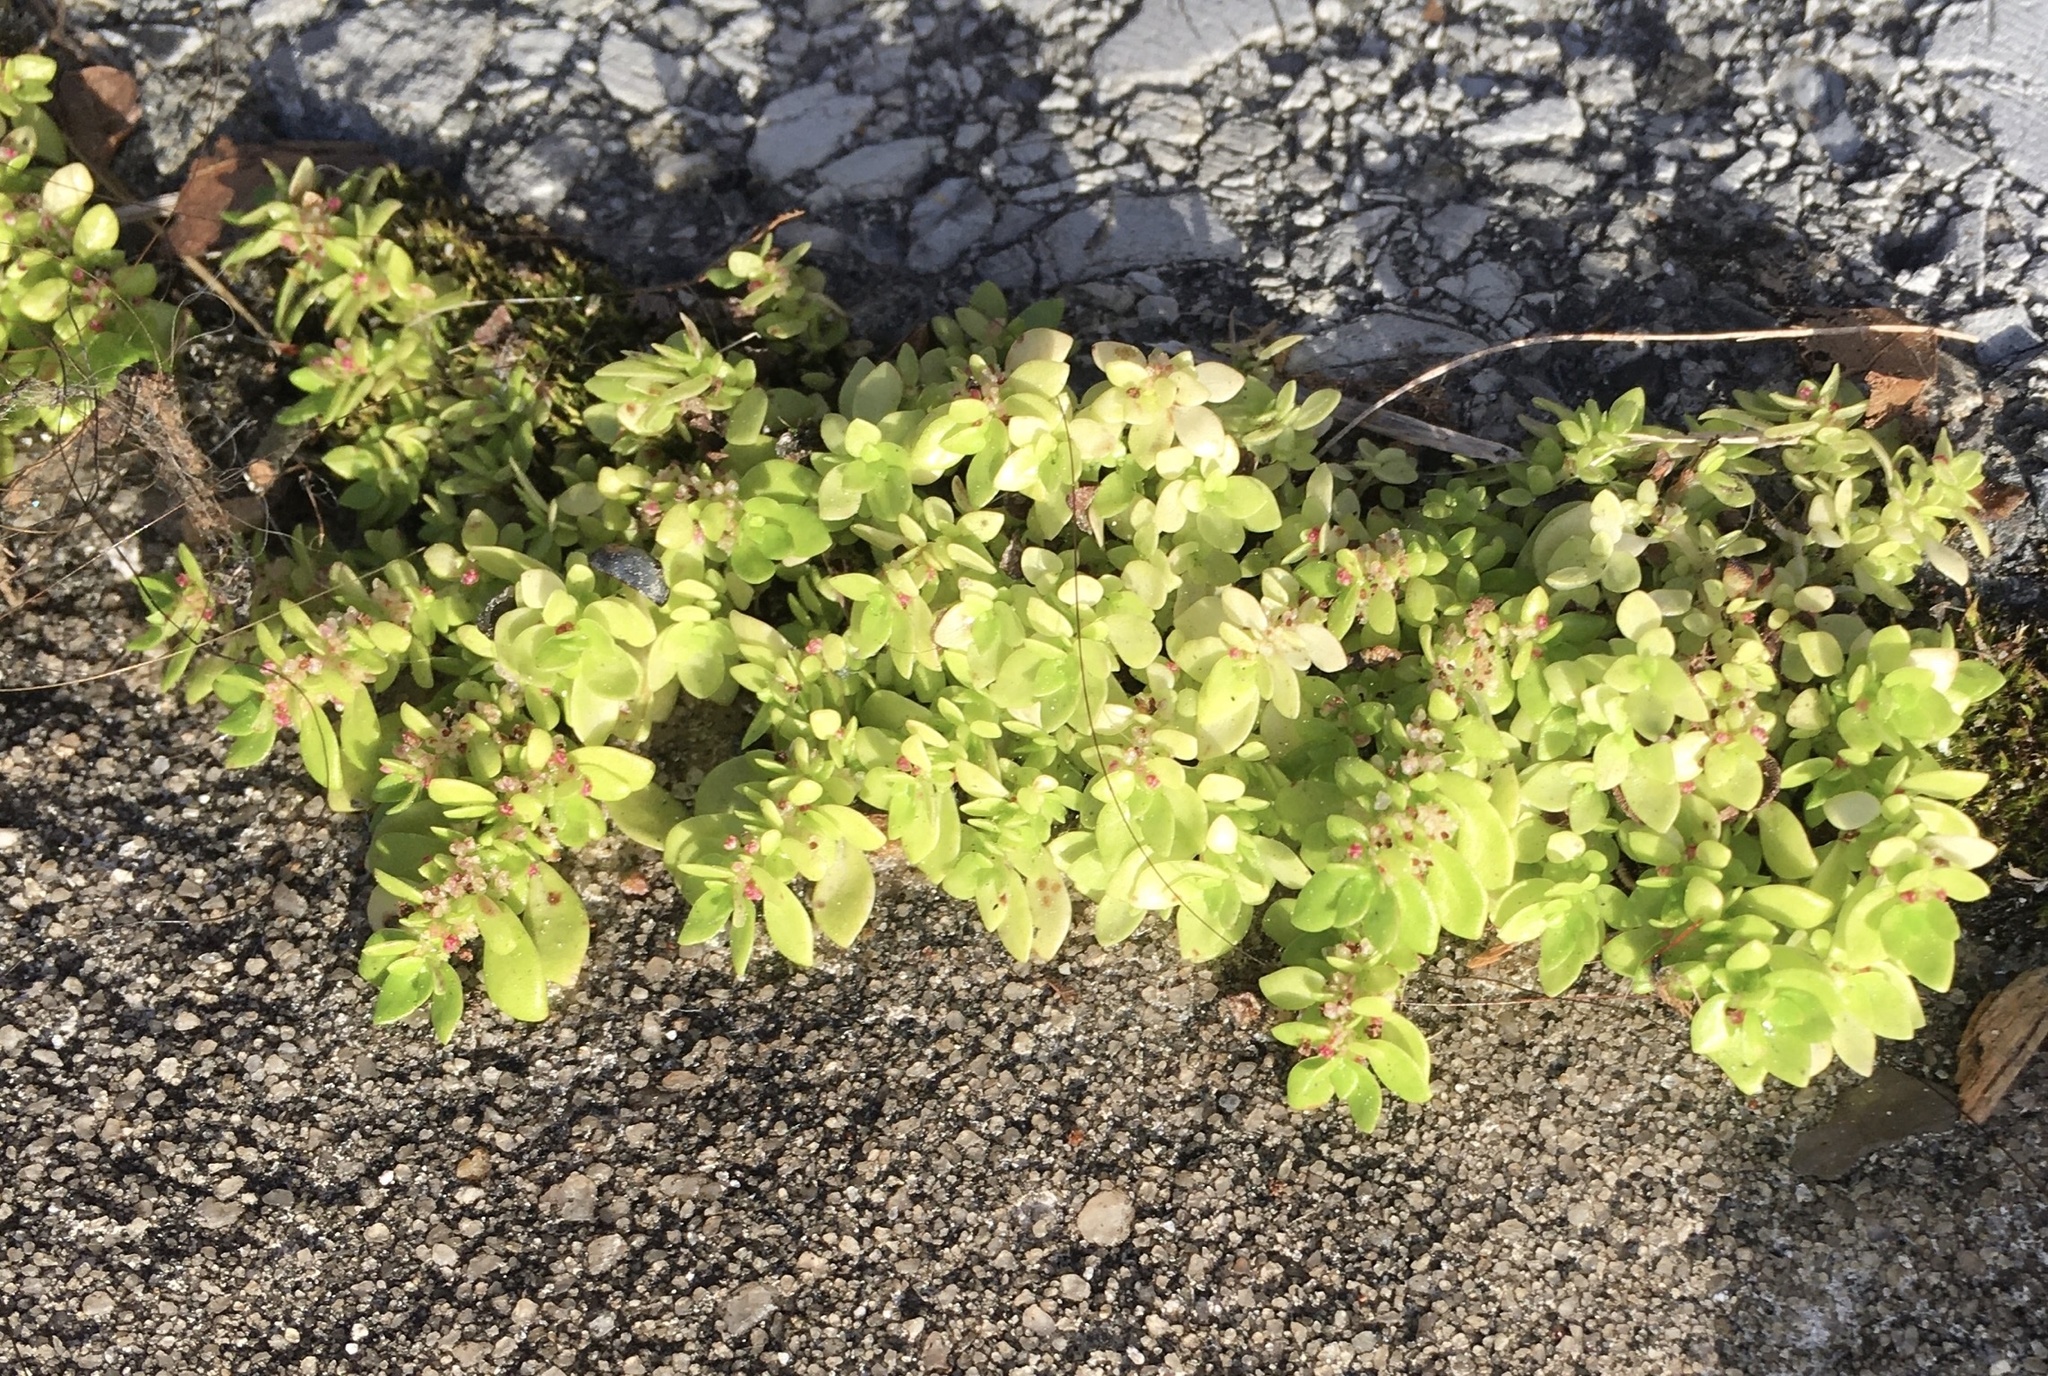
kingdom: Plantae
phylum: Tracheophyta
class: Magnoliopsida
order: Rosales
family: Urticaceae
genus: Pilea
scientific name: Pilea microphylla
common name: Artillery-plant
